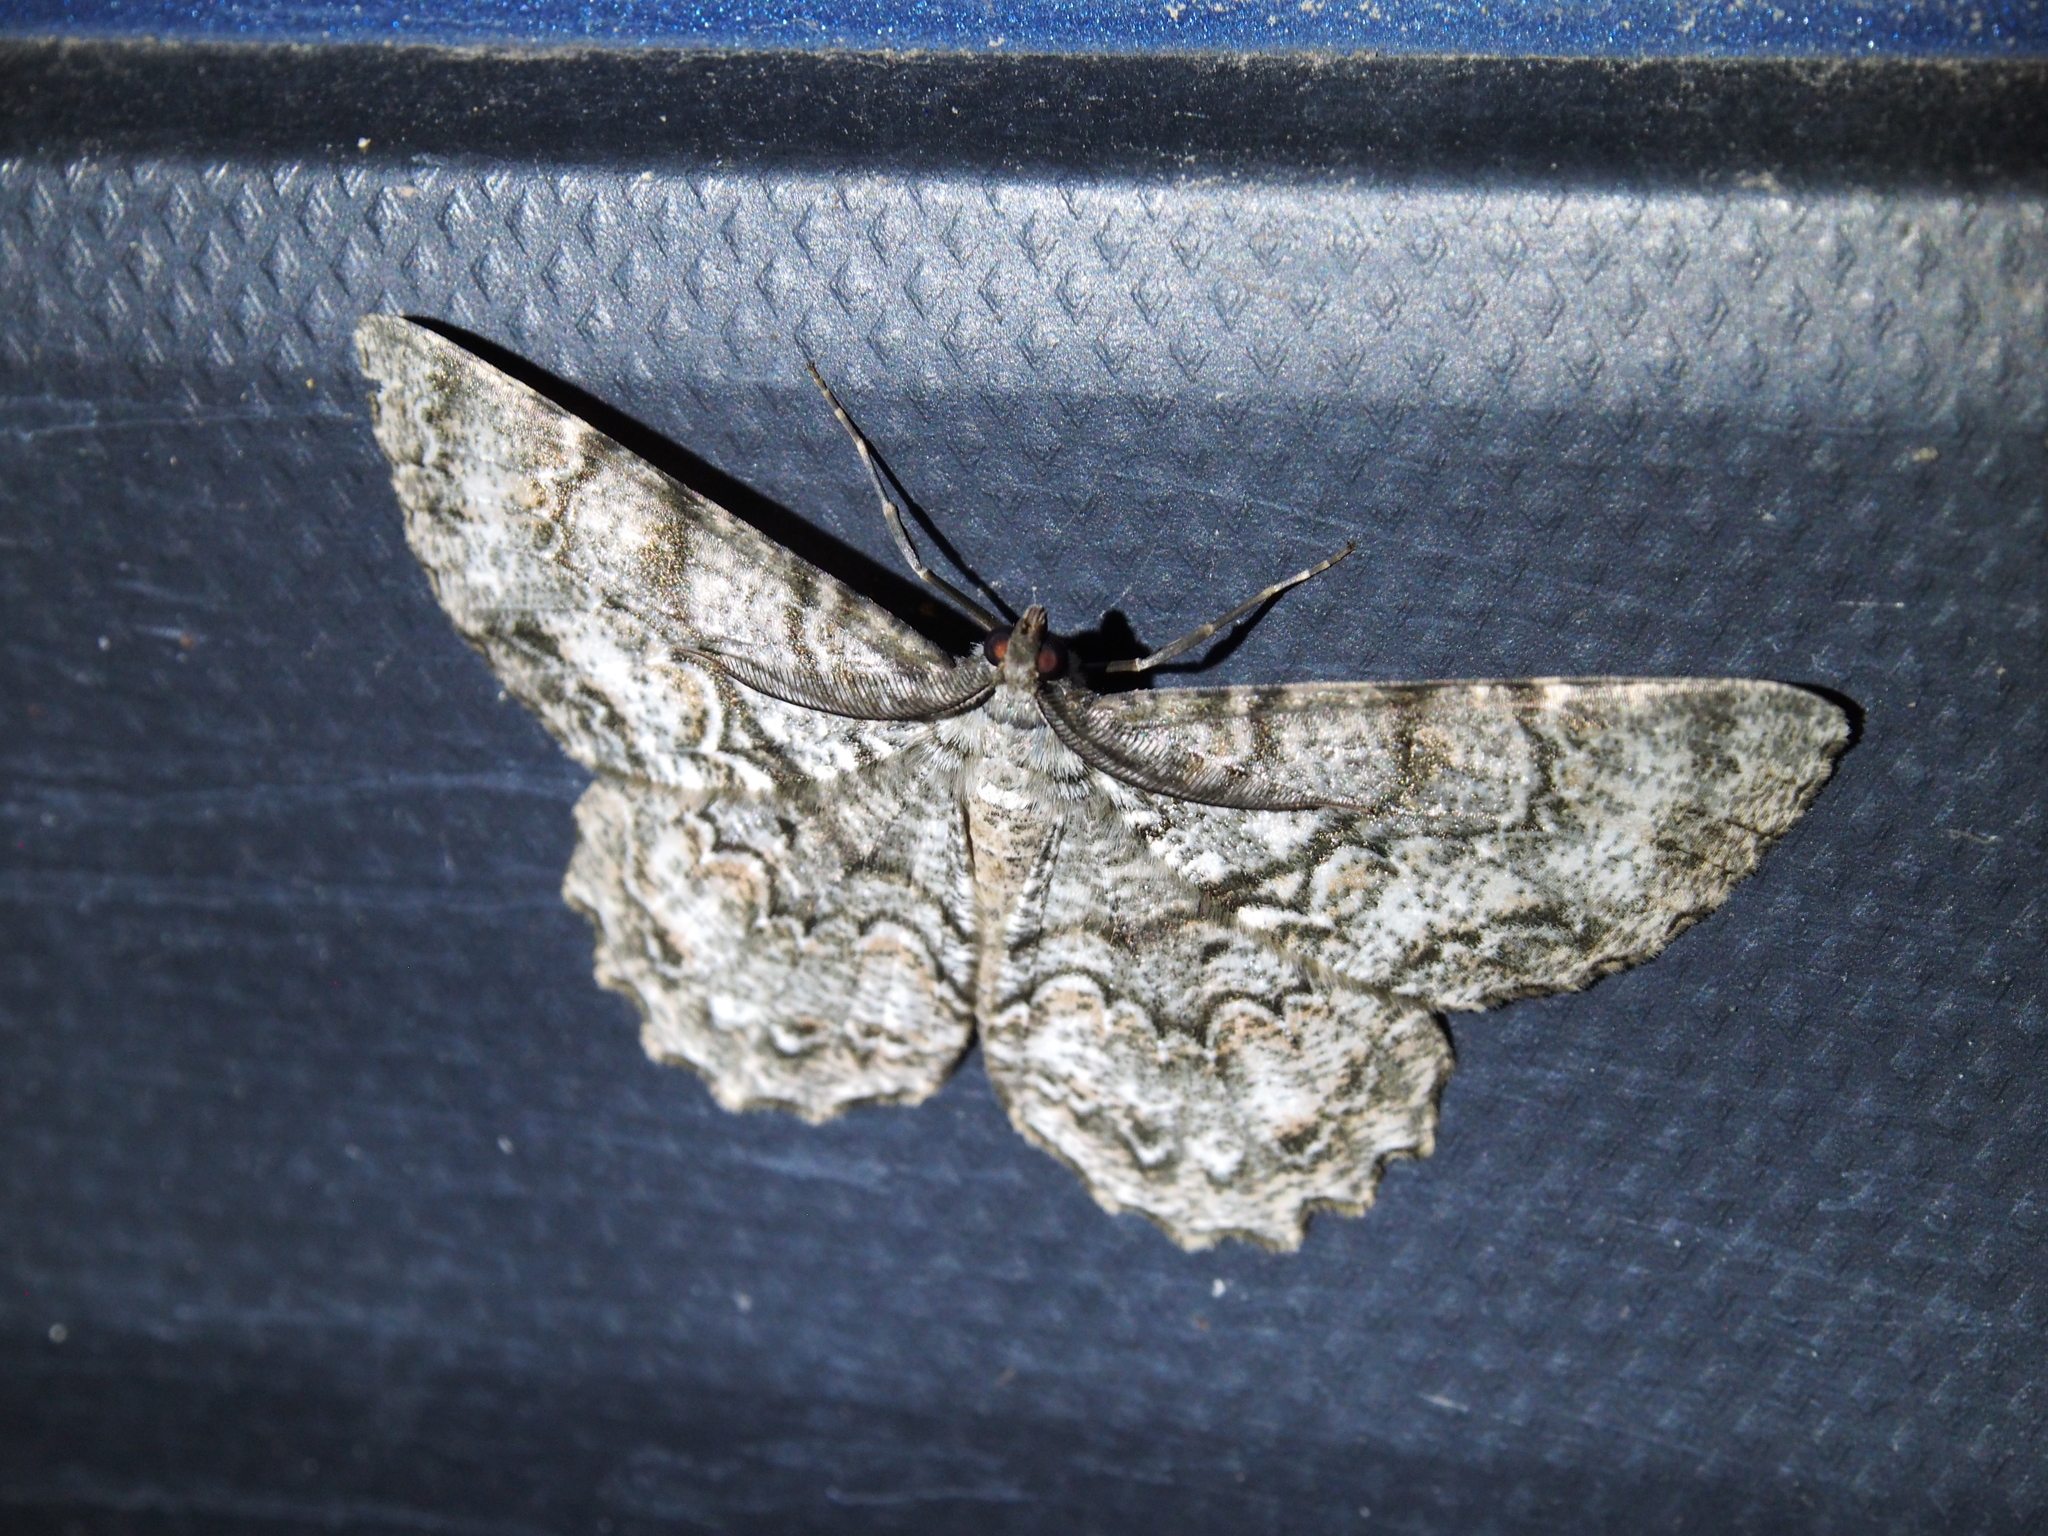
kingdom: Animalia
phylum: Arthropoda
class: Insecta
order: Lepidoptera
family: Geometridae
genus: Epimecis
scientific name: Epimecis hortaria
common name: Tulip-tree beauty
